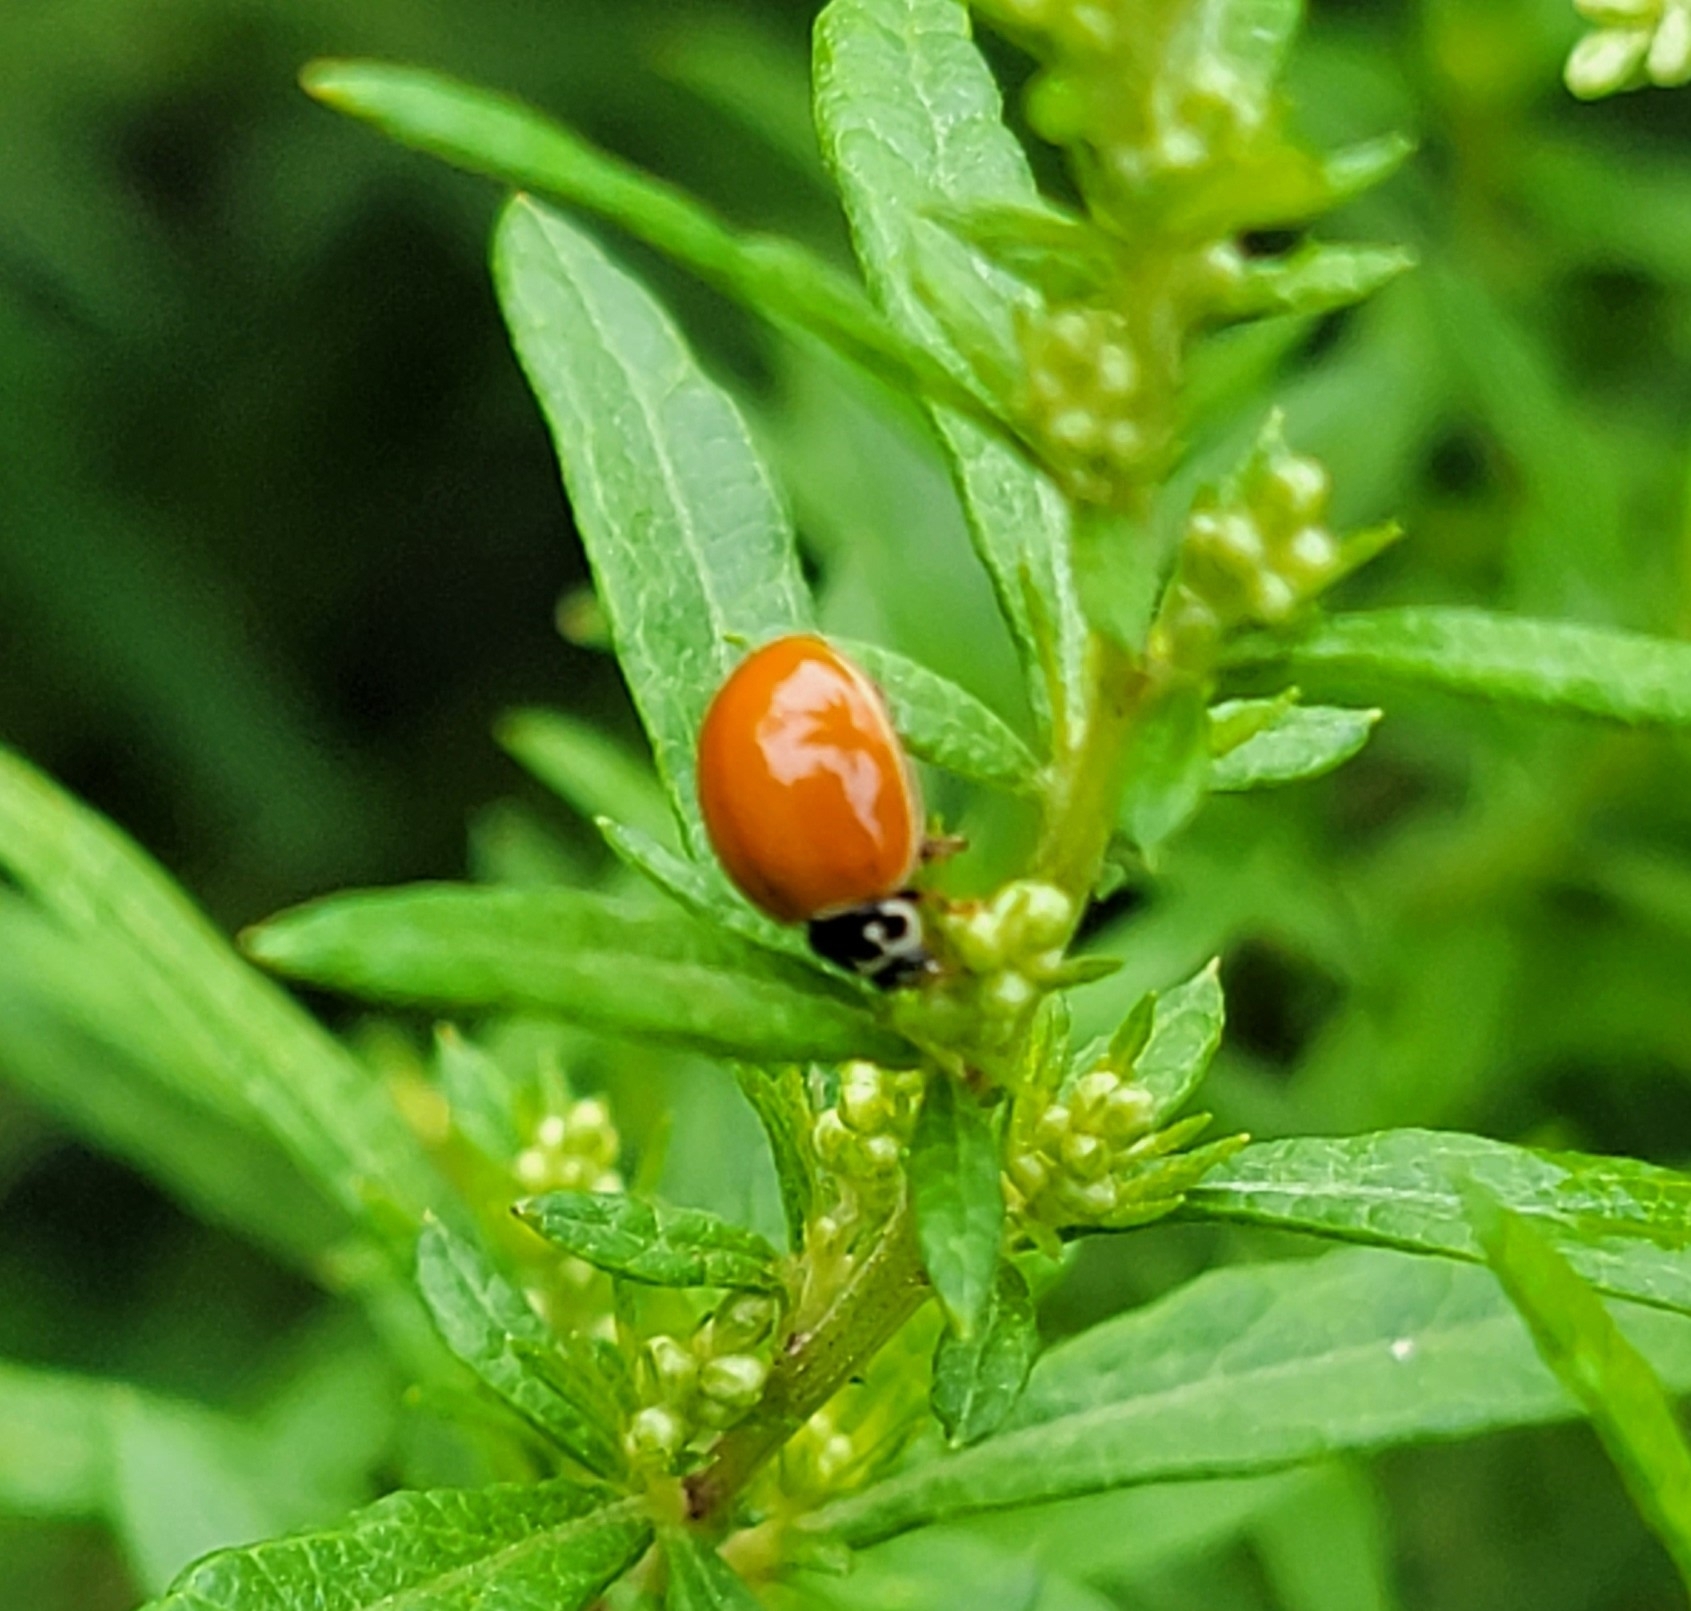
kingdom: Animalia
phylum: Arthropoda
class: Insecta
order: Coleoptera
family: Coccinellidae
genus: Cycloneda
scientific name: Cycloneda munda
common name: Polished lady beetle
